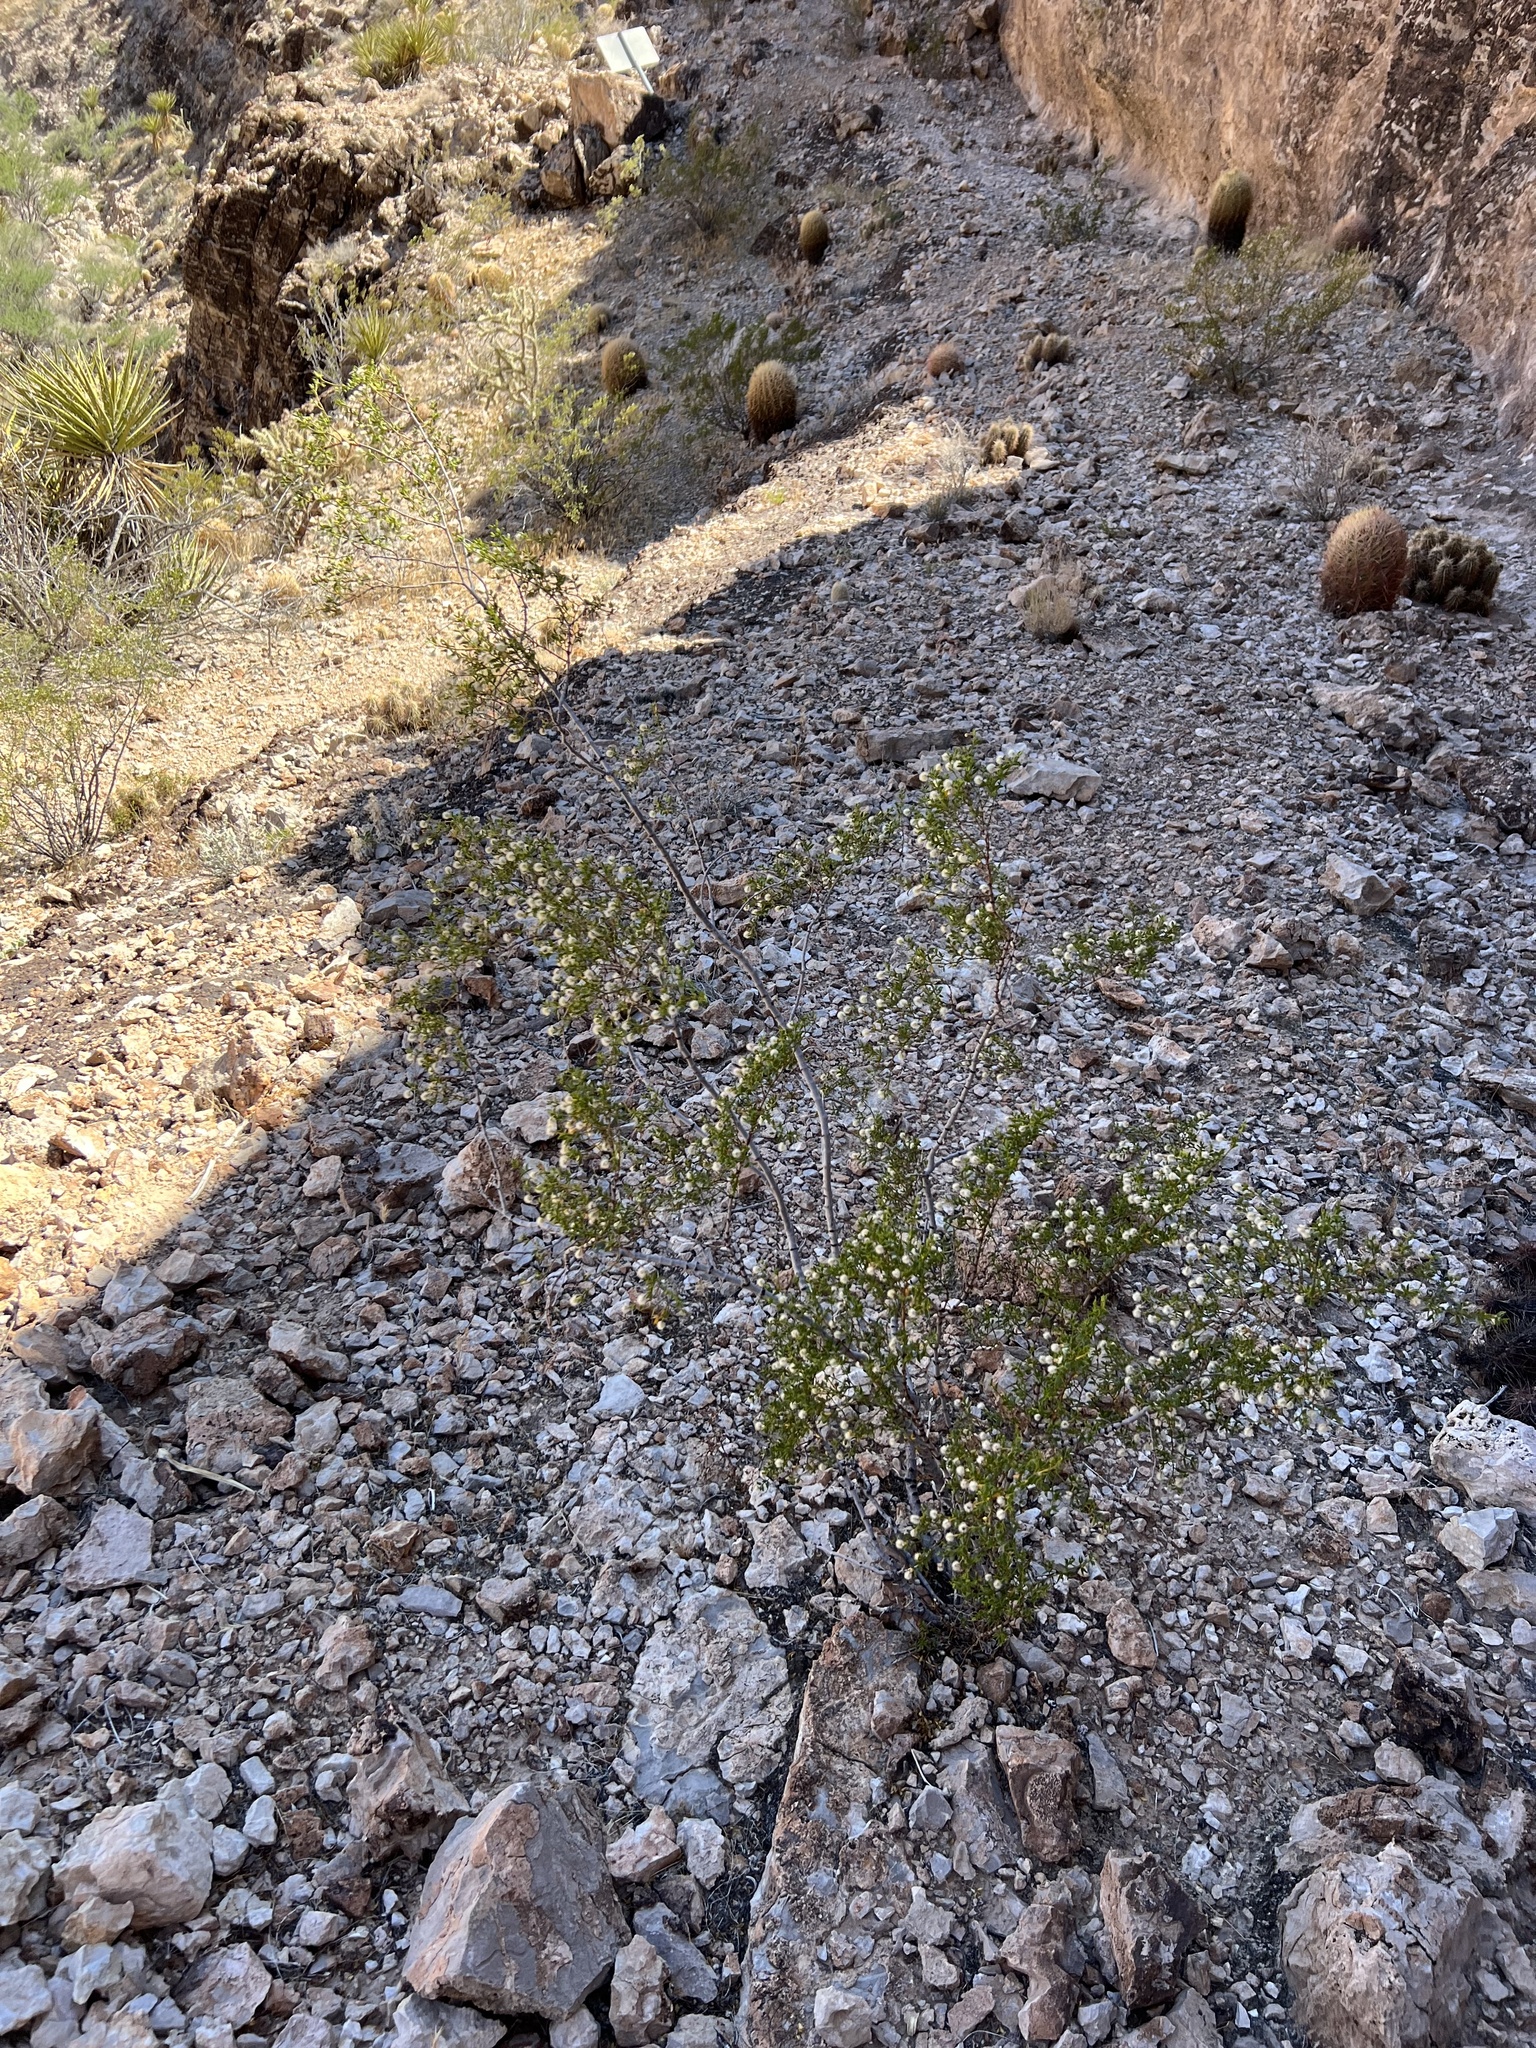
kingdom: Plantae
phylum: Tracheophyta
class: Magnoliopsida
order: Zygophyllales
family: Zygophyllaceae
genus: Larrea
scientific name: Larrea tridentata
